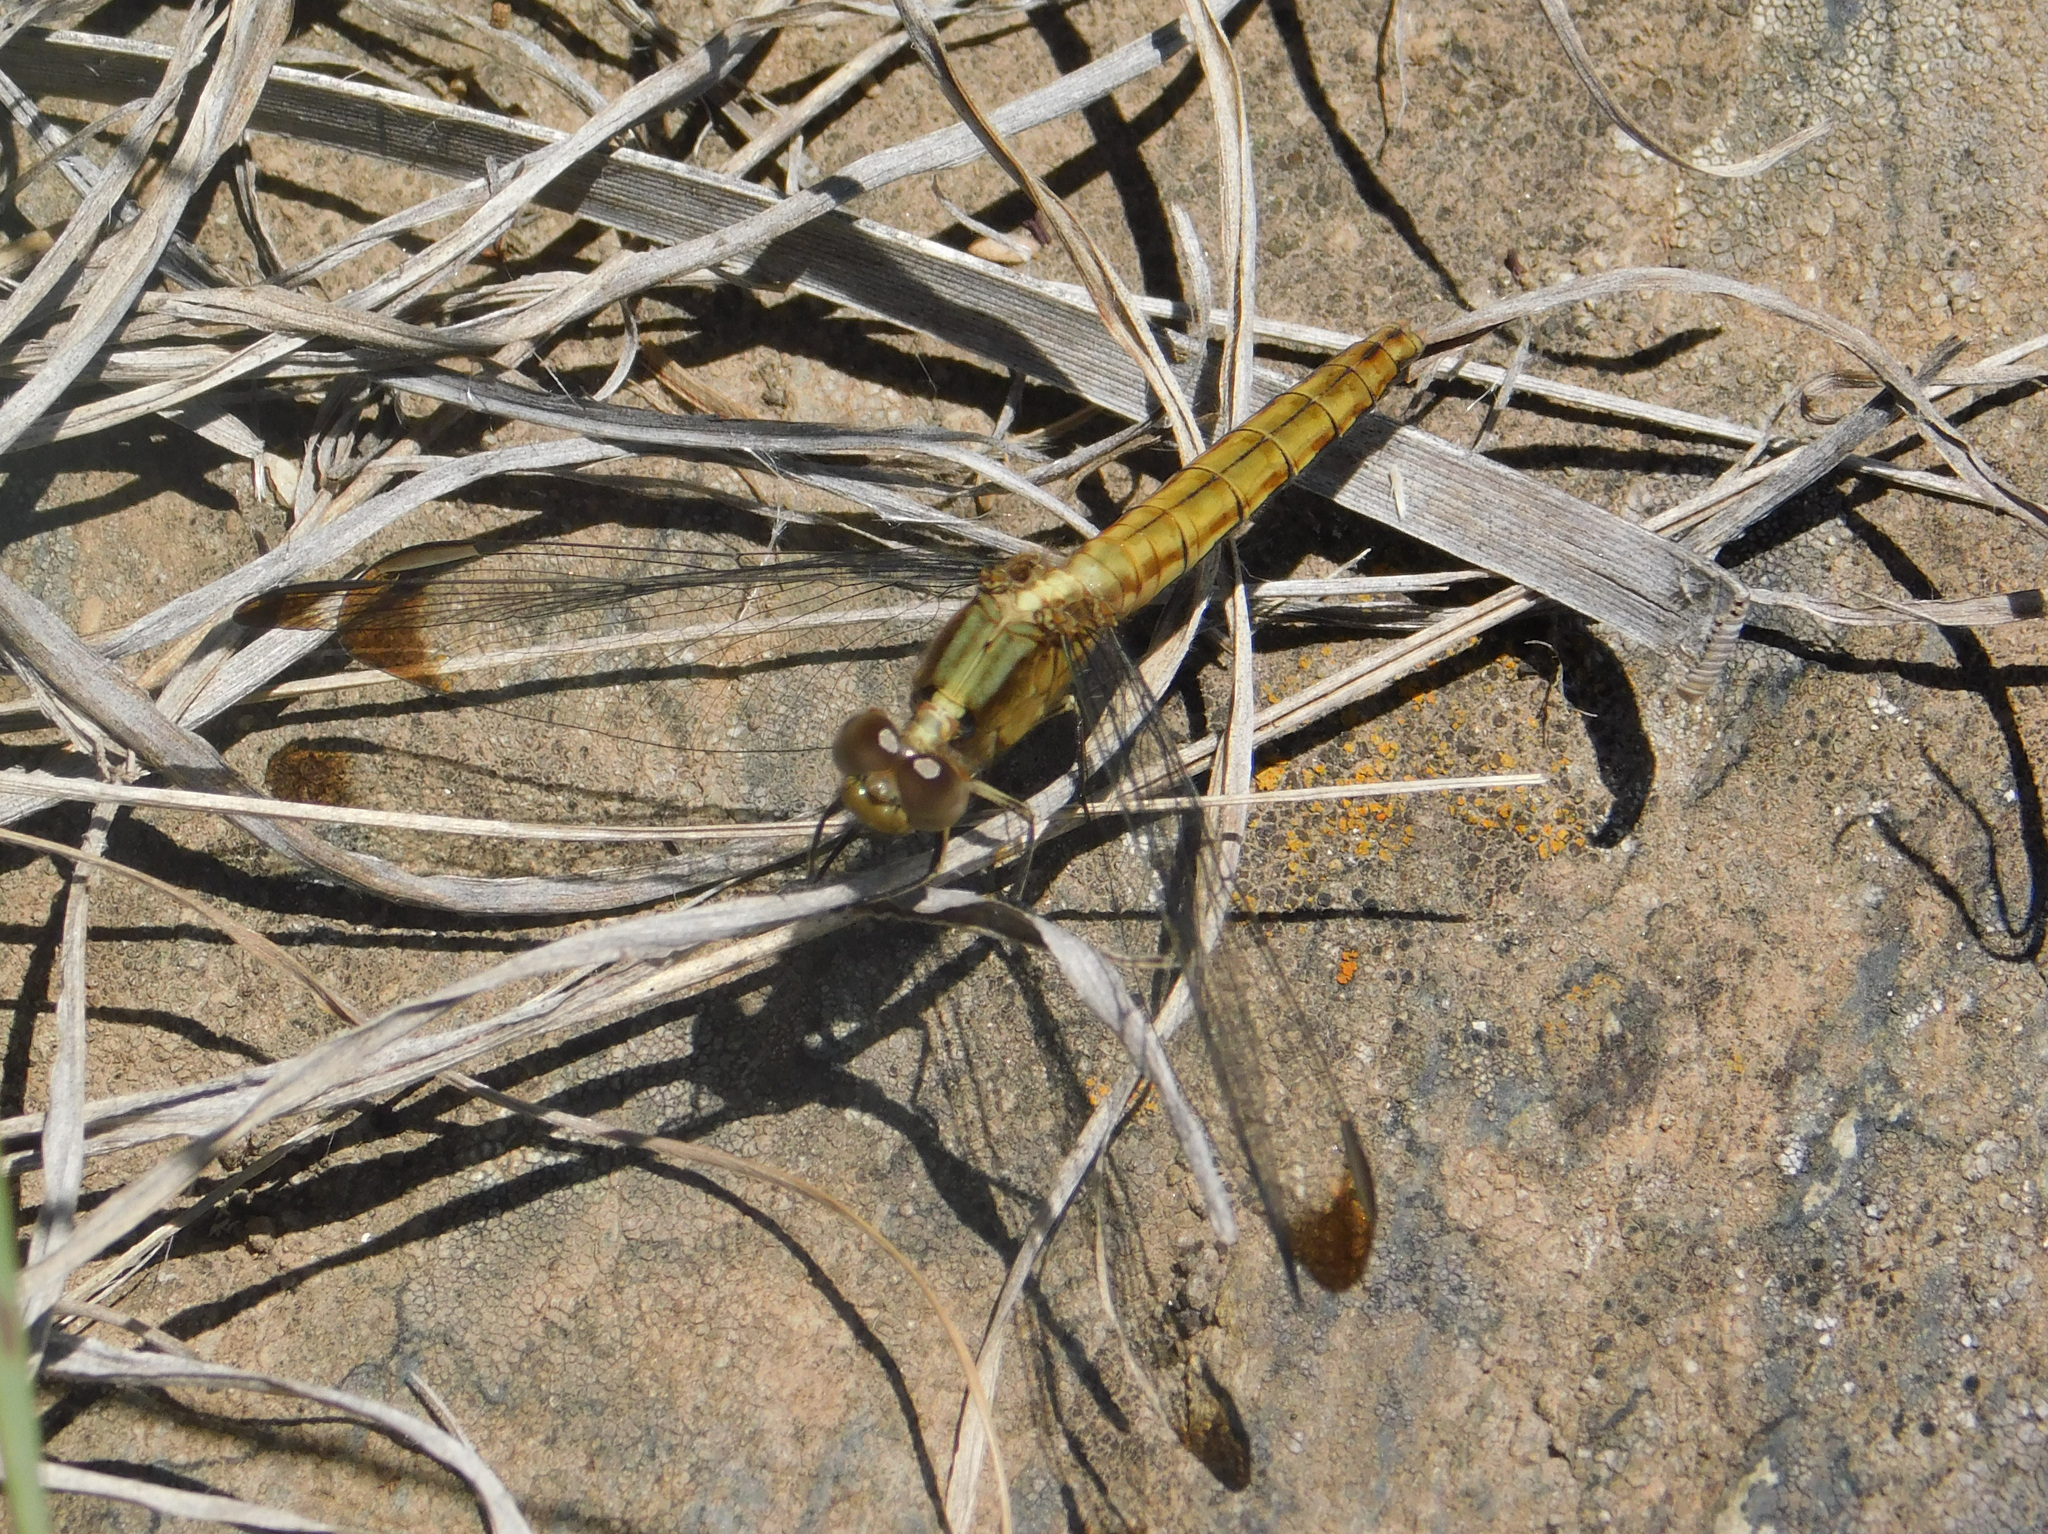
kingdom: Animalia
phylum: Arthropoda
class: Insecta
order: Odonata
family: Libellulidae
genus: Erythrodiplax
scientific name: Erythrodiplax atroterminata
